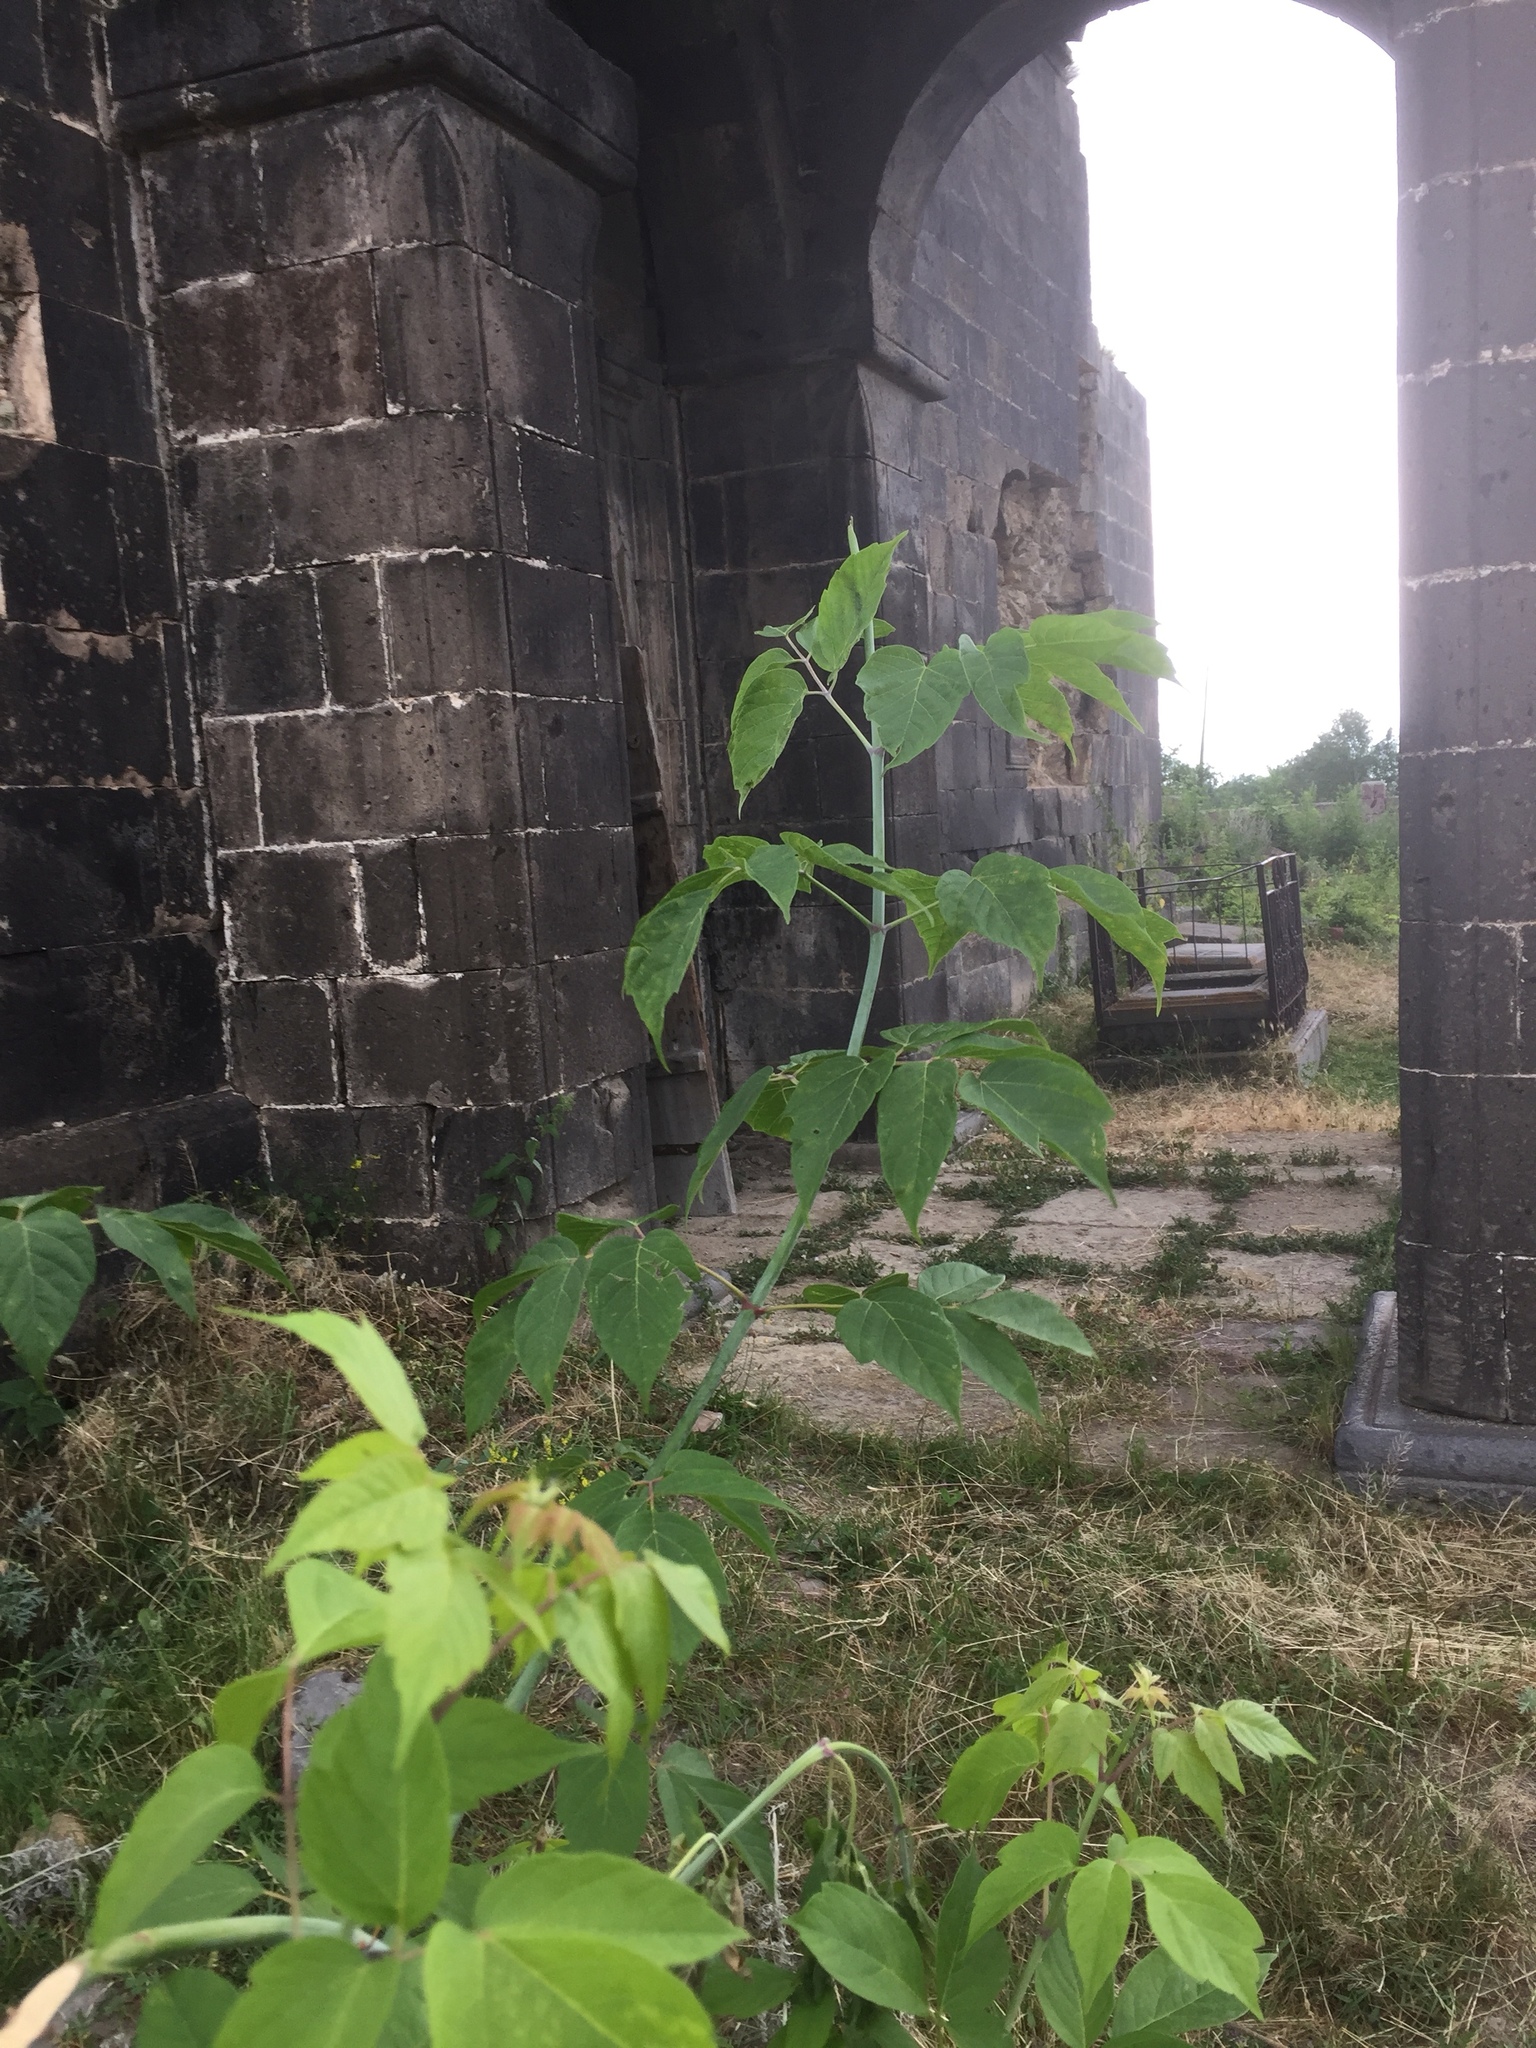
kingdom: Plantae
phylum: Tracheophyta
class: Magnoliopsida
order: Sapindales
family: Sapindaceae
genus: Acer
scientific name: Acer negundo
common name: Ashleaf maple
